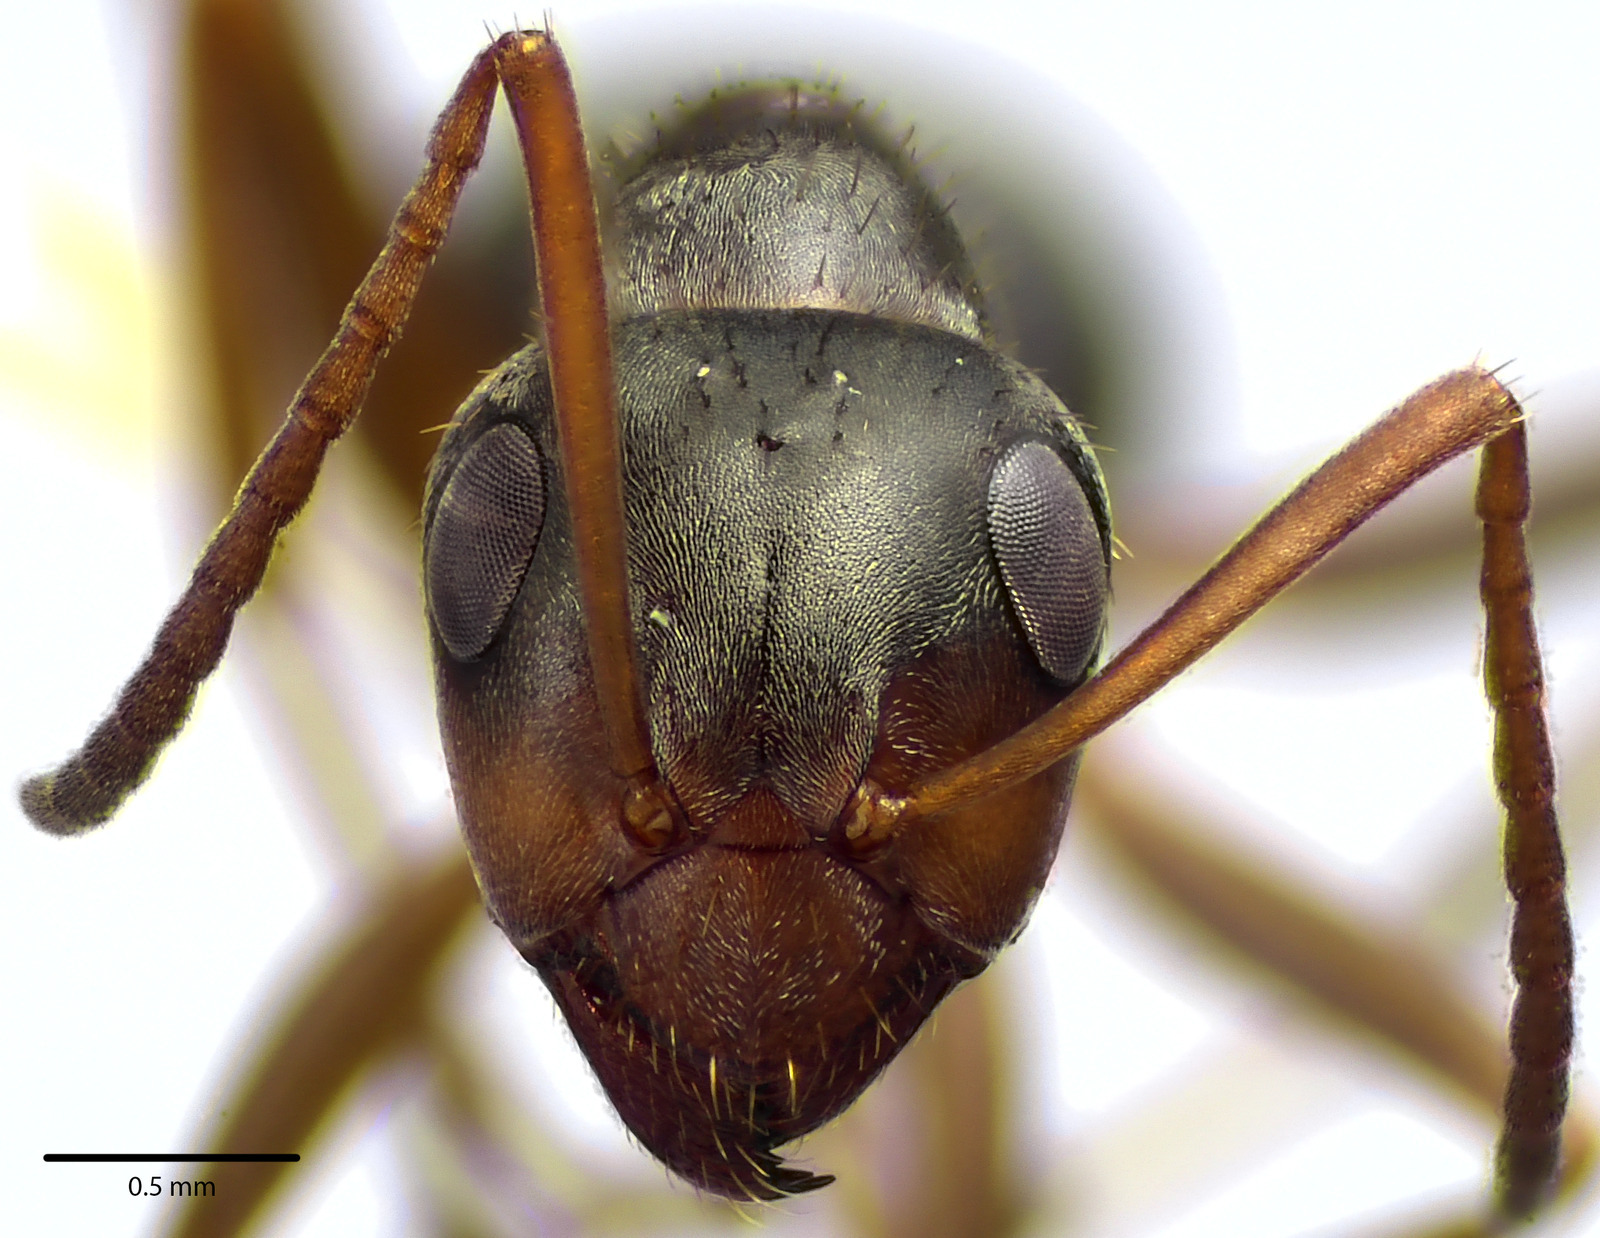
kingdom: Animalia
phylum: Arthropoda
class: Insecta
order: Hymenoptera
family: Formicidae
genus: Formica
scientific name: Formica montana
